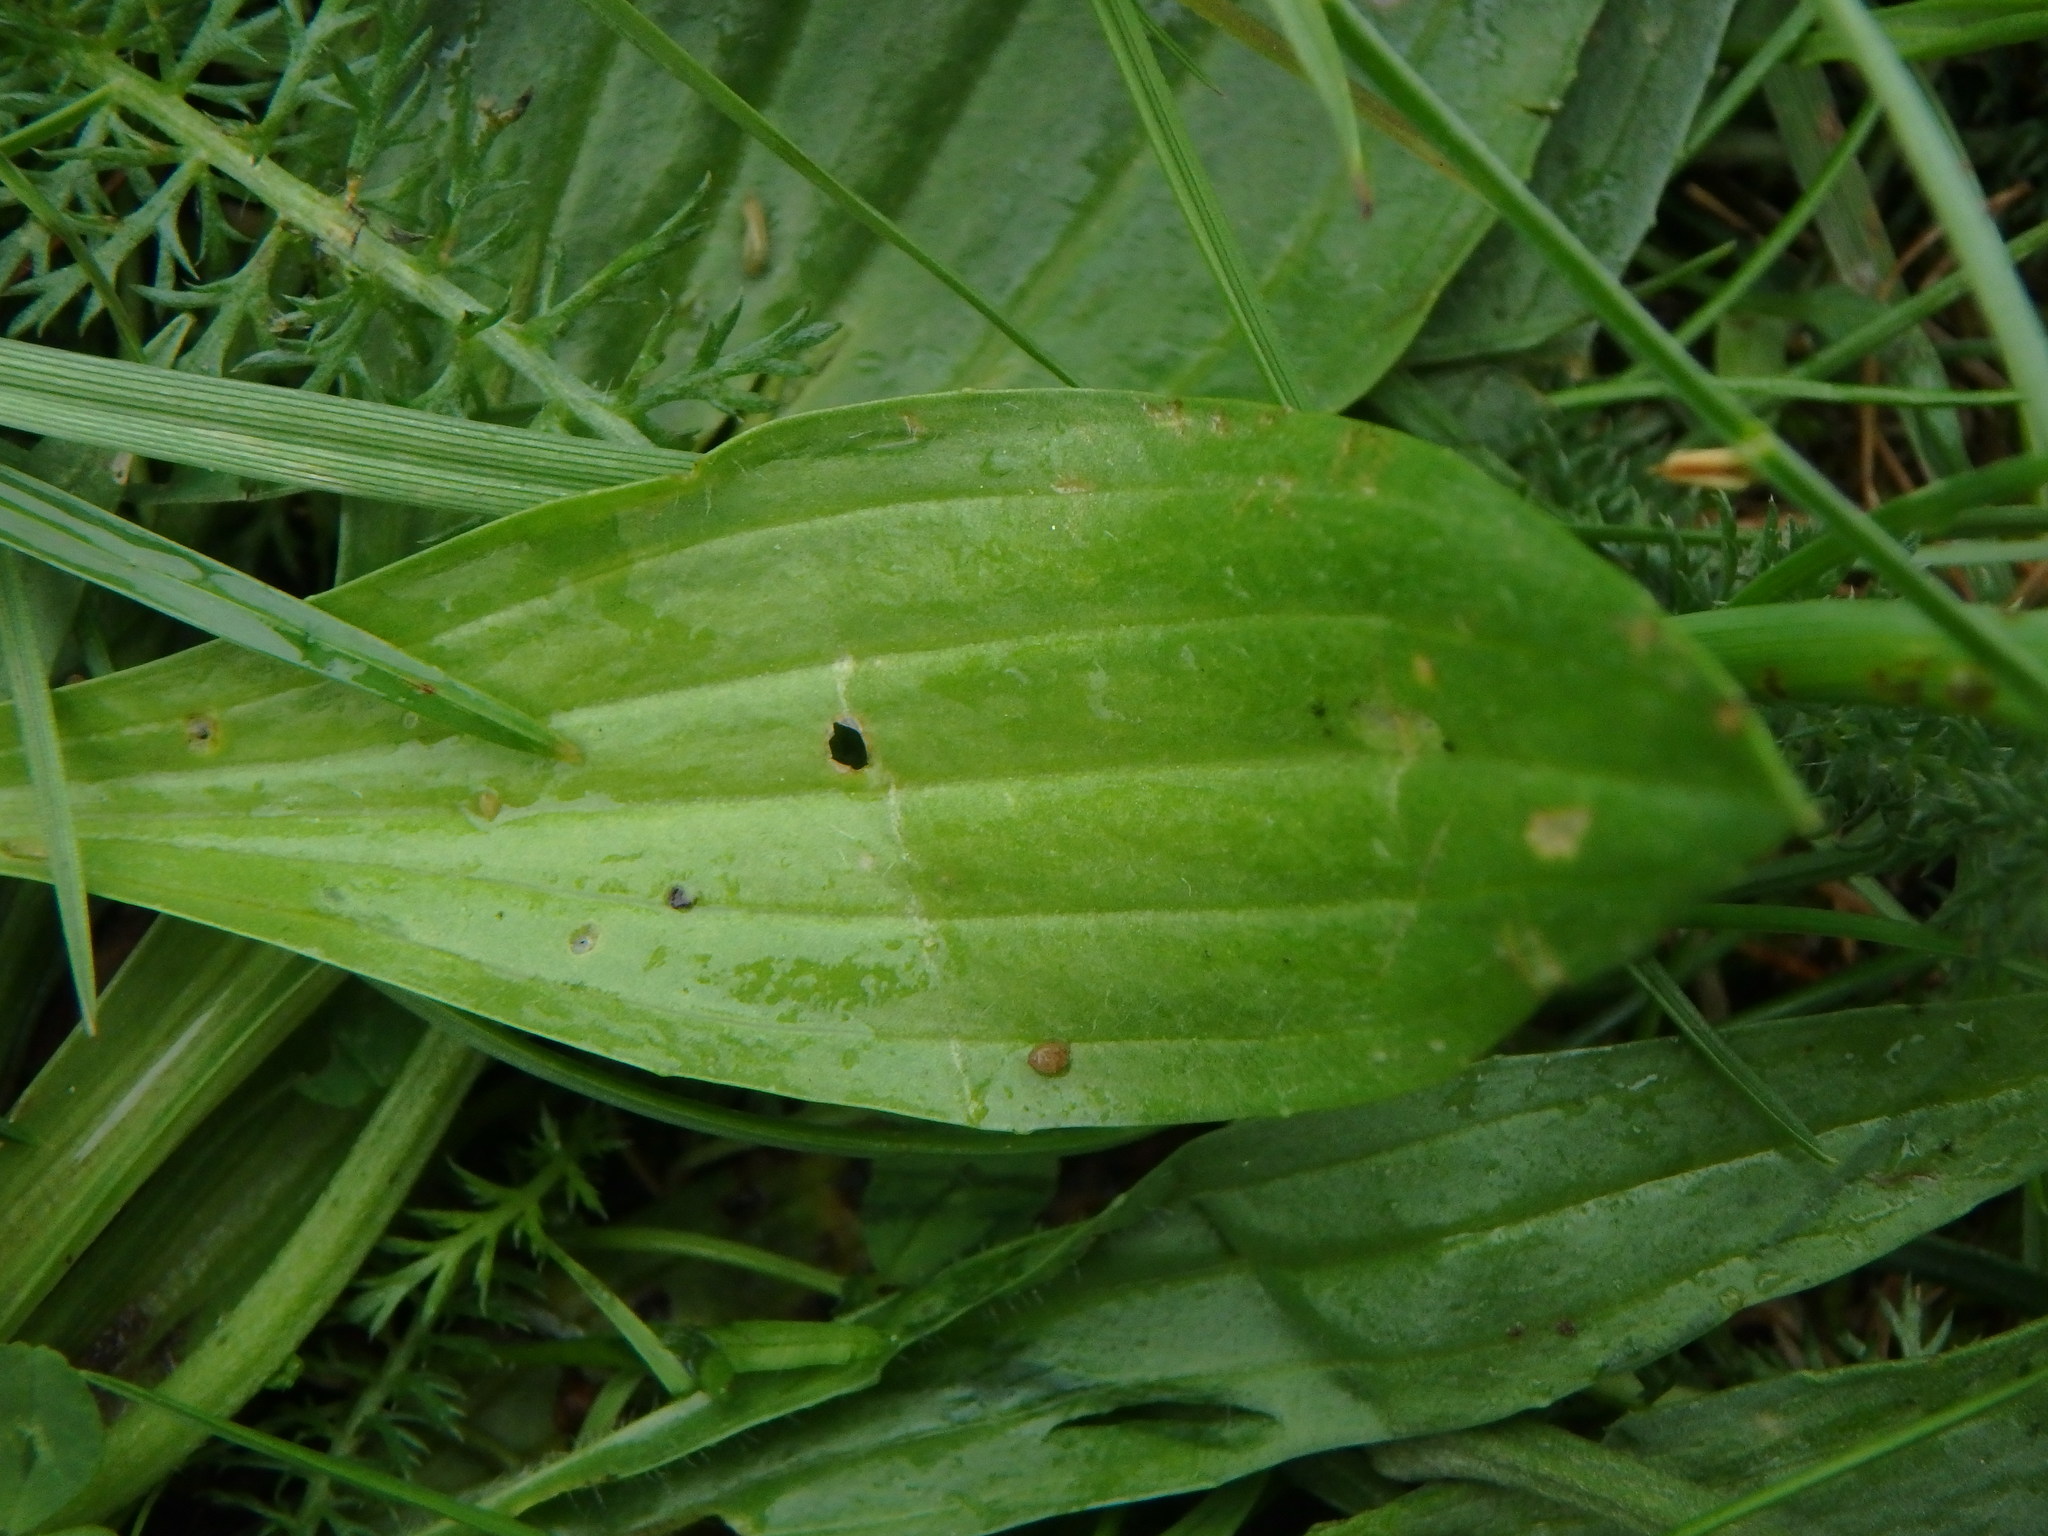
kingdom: Plantae
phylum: Tracheophyta
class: Magnoliopsida
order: Lamiales
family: Plantaginaceae
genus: Plantago
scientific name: Plantago lanceolata
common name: Ribwort plantain
